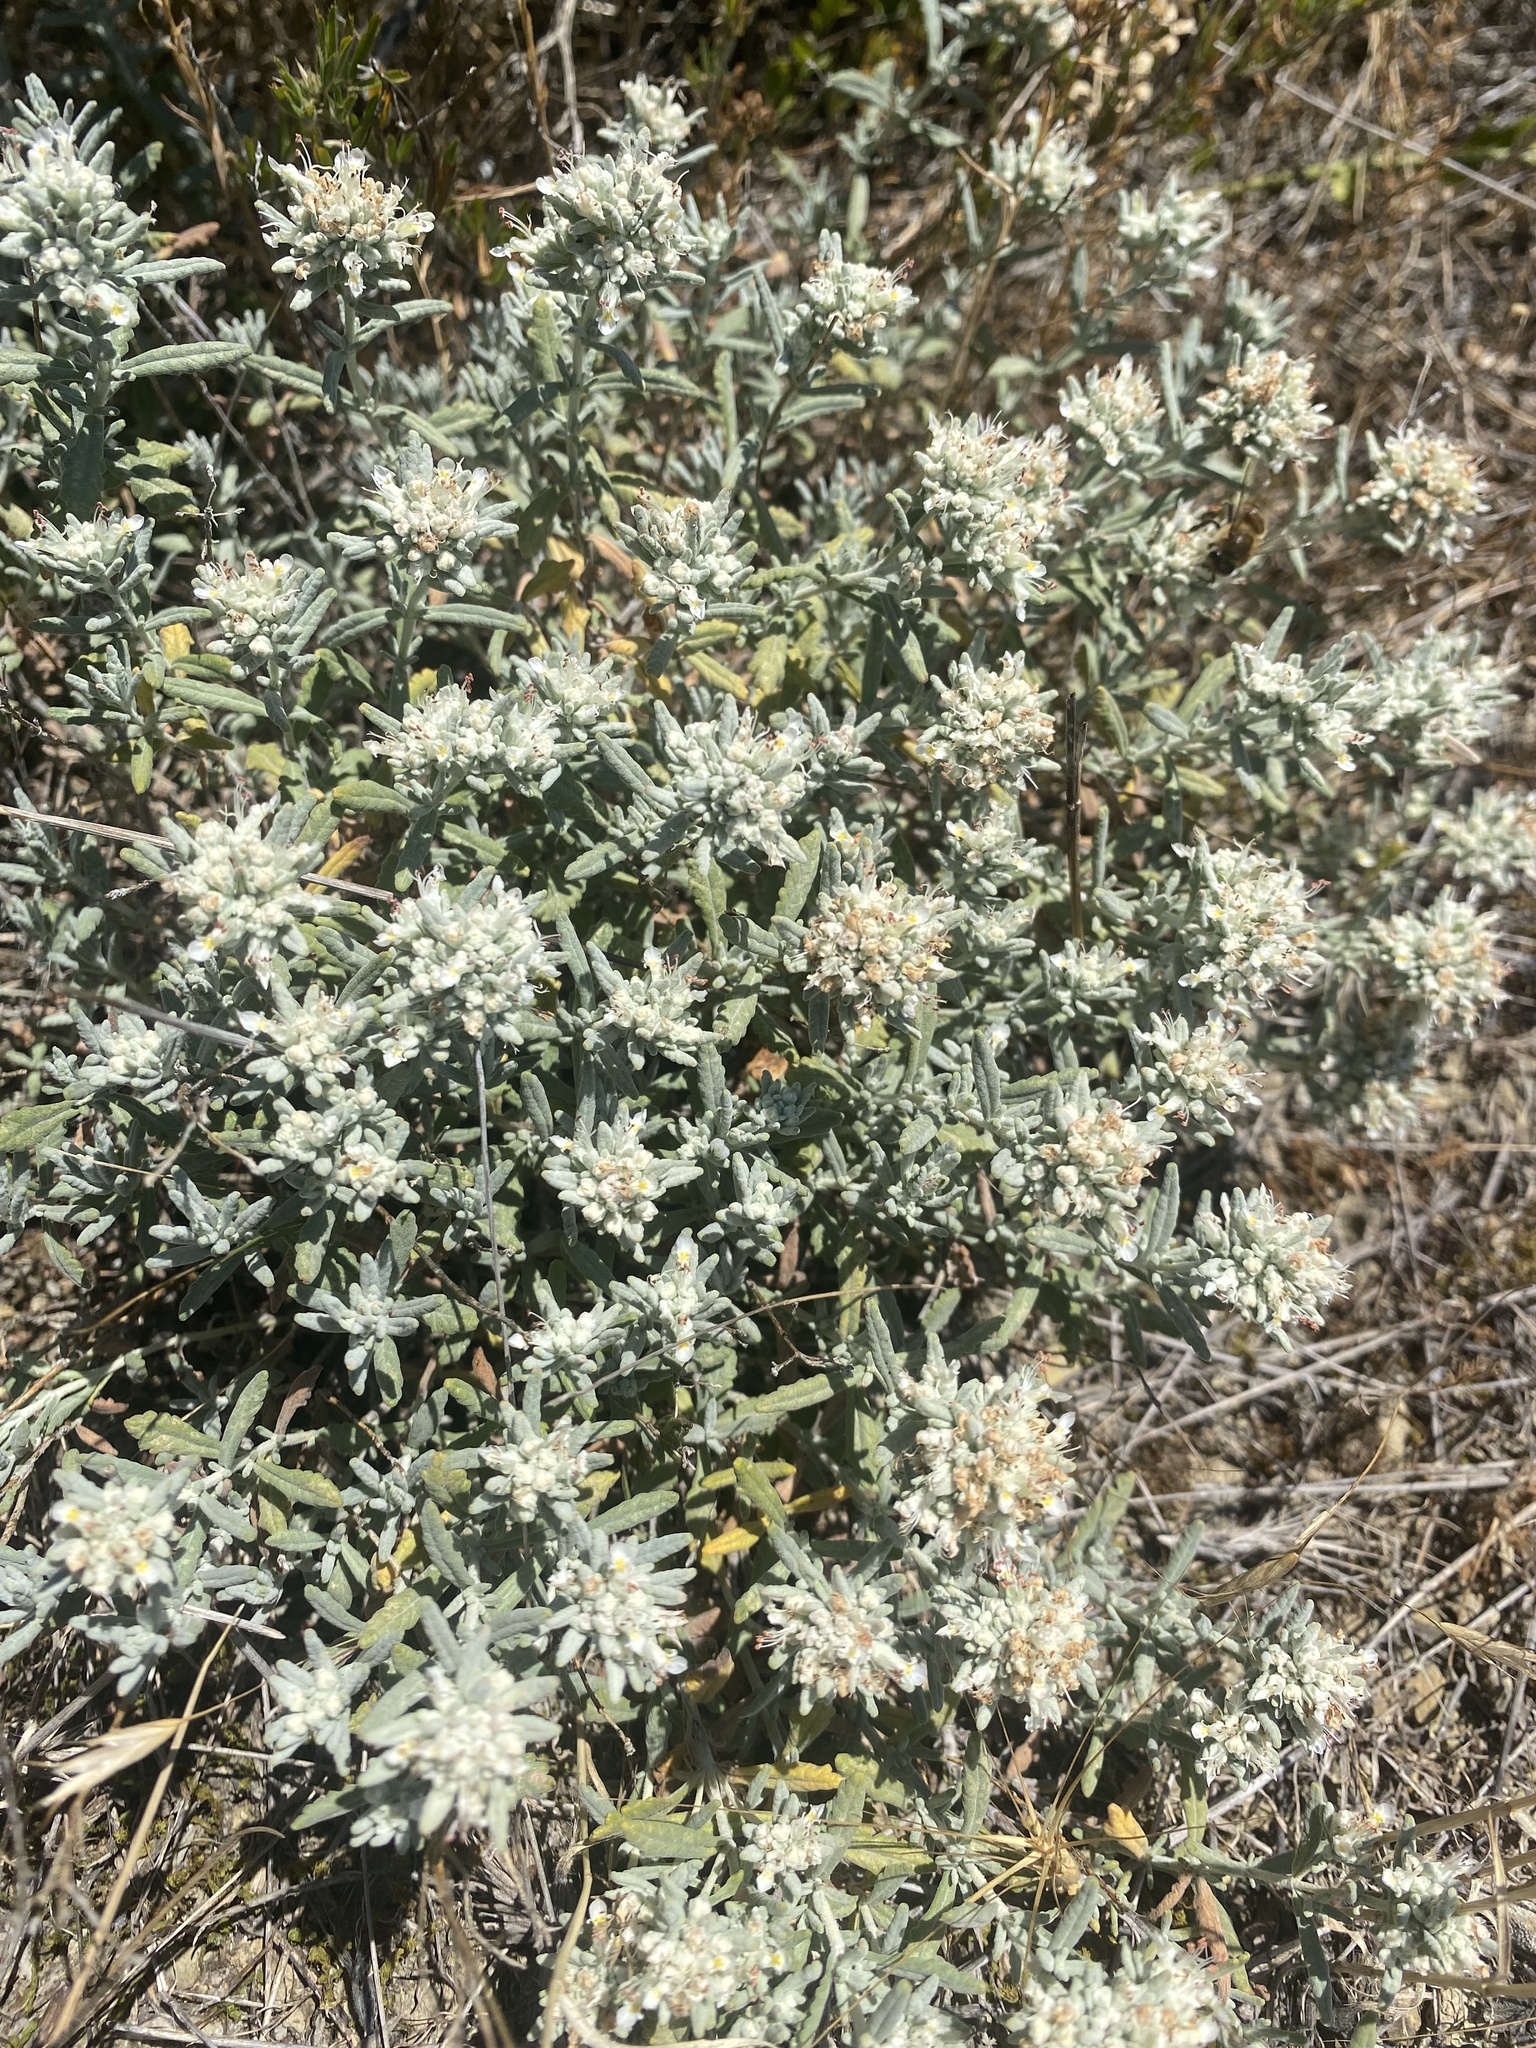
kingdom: Plantae
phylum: Tracheophyta
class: Magnoliopsida
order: Lamiales
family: Lamiaceae
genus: Teucrium
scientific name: Teucrium polium
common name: Poley
